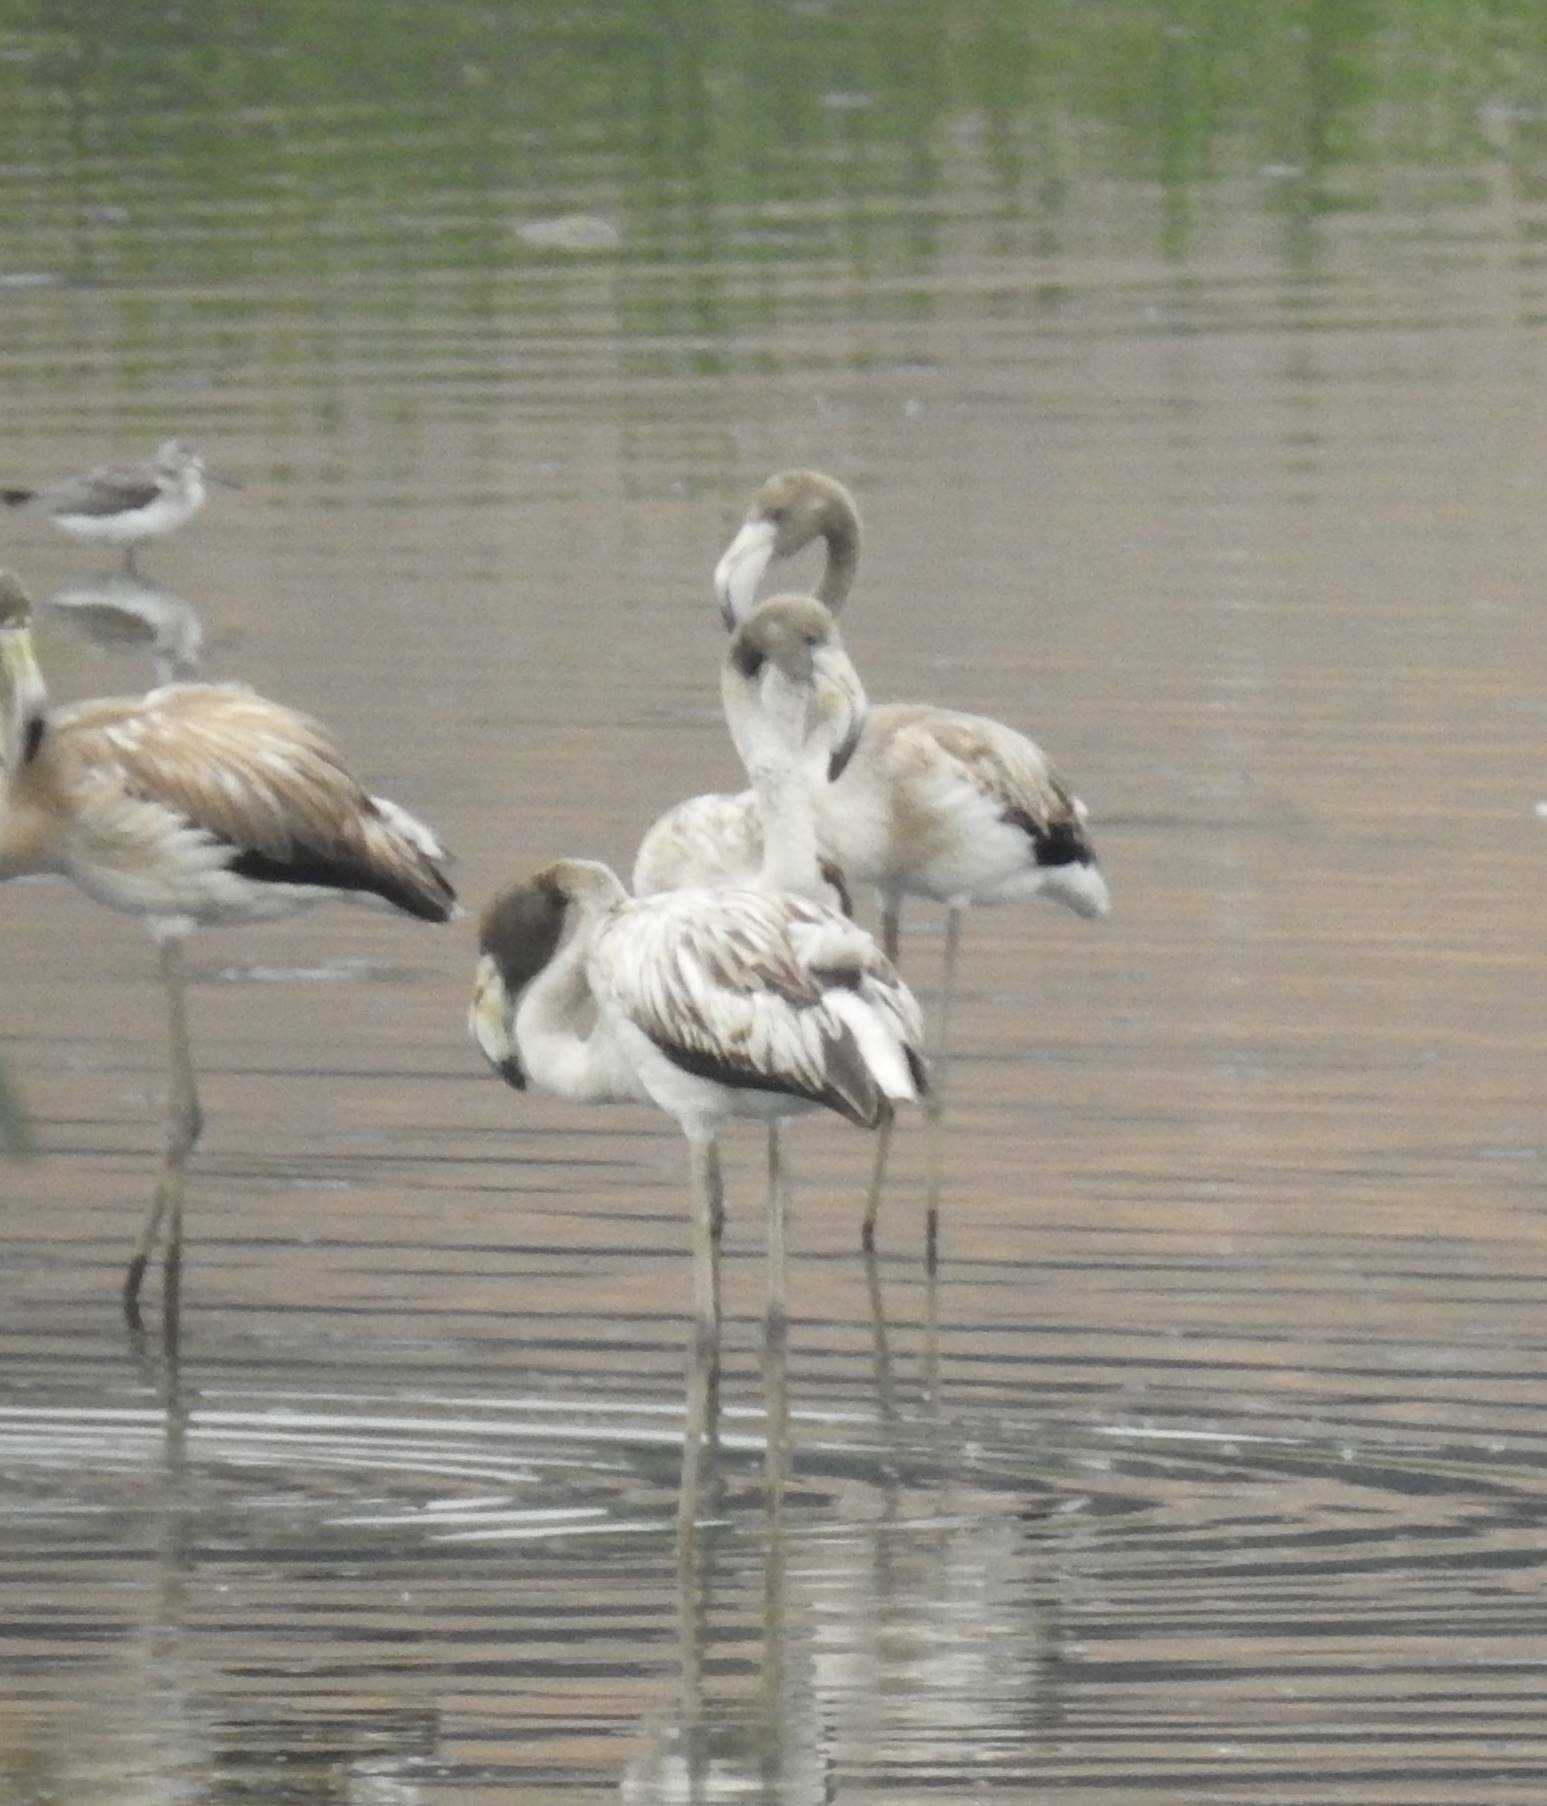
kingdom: Animalia
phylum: Chordata
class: Aves
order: Phoenicopteriformes
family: Phoenicopteridae
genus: Phoenicopterus
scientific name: Phoenicopterus roseus
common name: Greater flamingo
